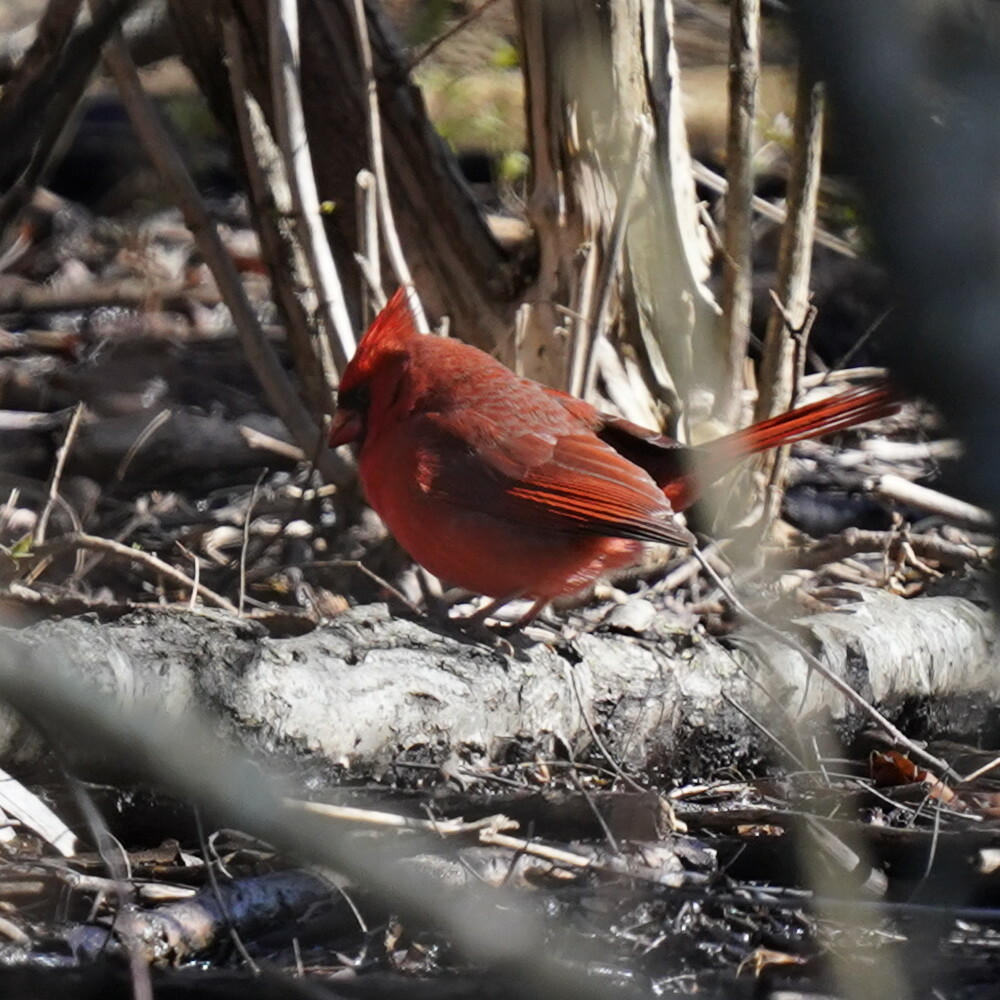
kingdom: Animalia
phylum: Chordata
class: Aves
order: Passeriformes
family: Cardinalidae
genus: Cardinalis
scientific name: Cardinalis cardinalis
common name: Northern cardinal
